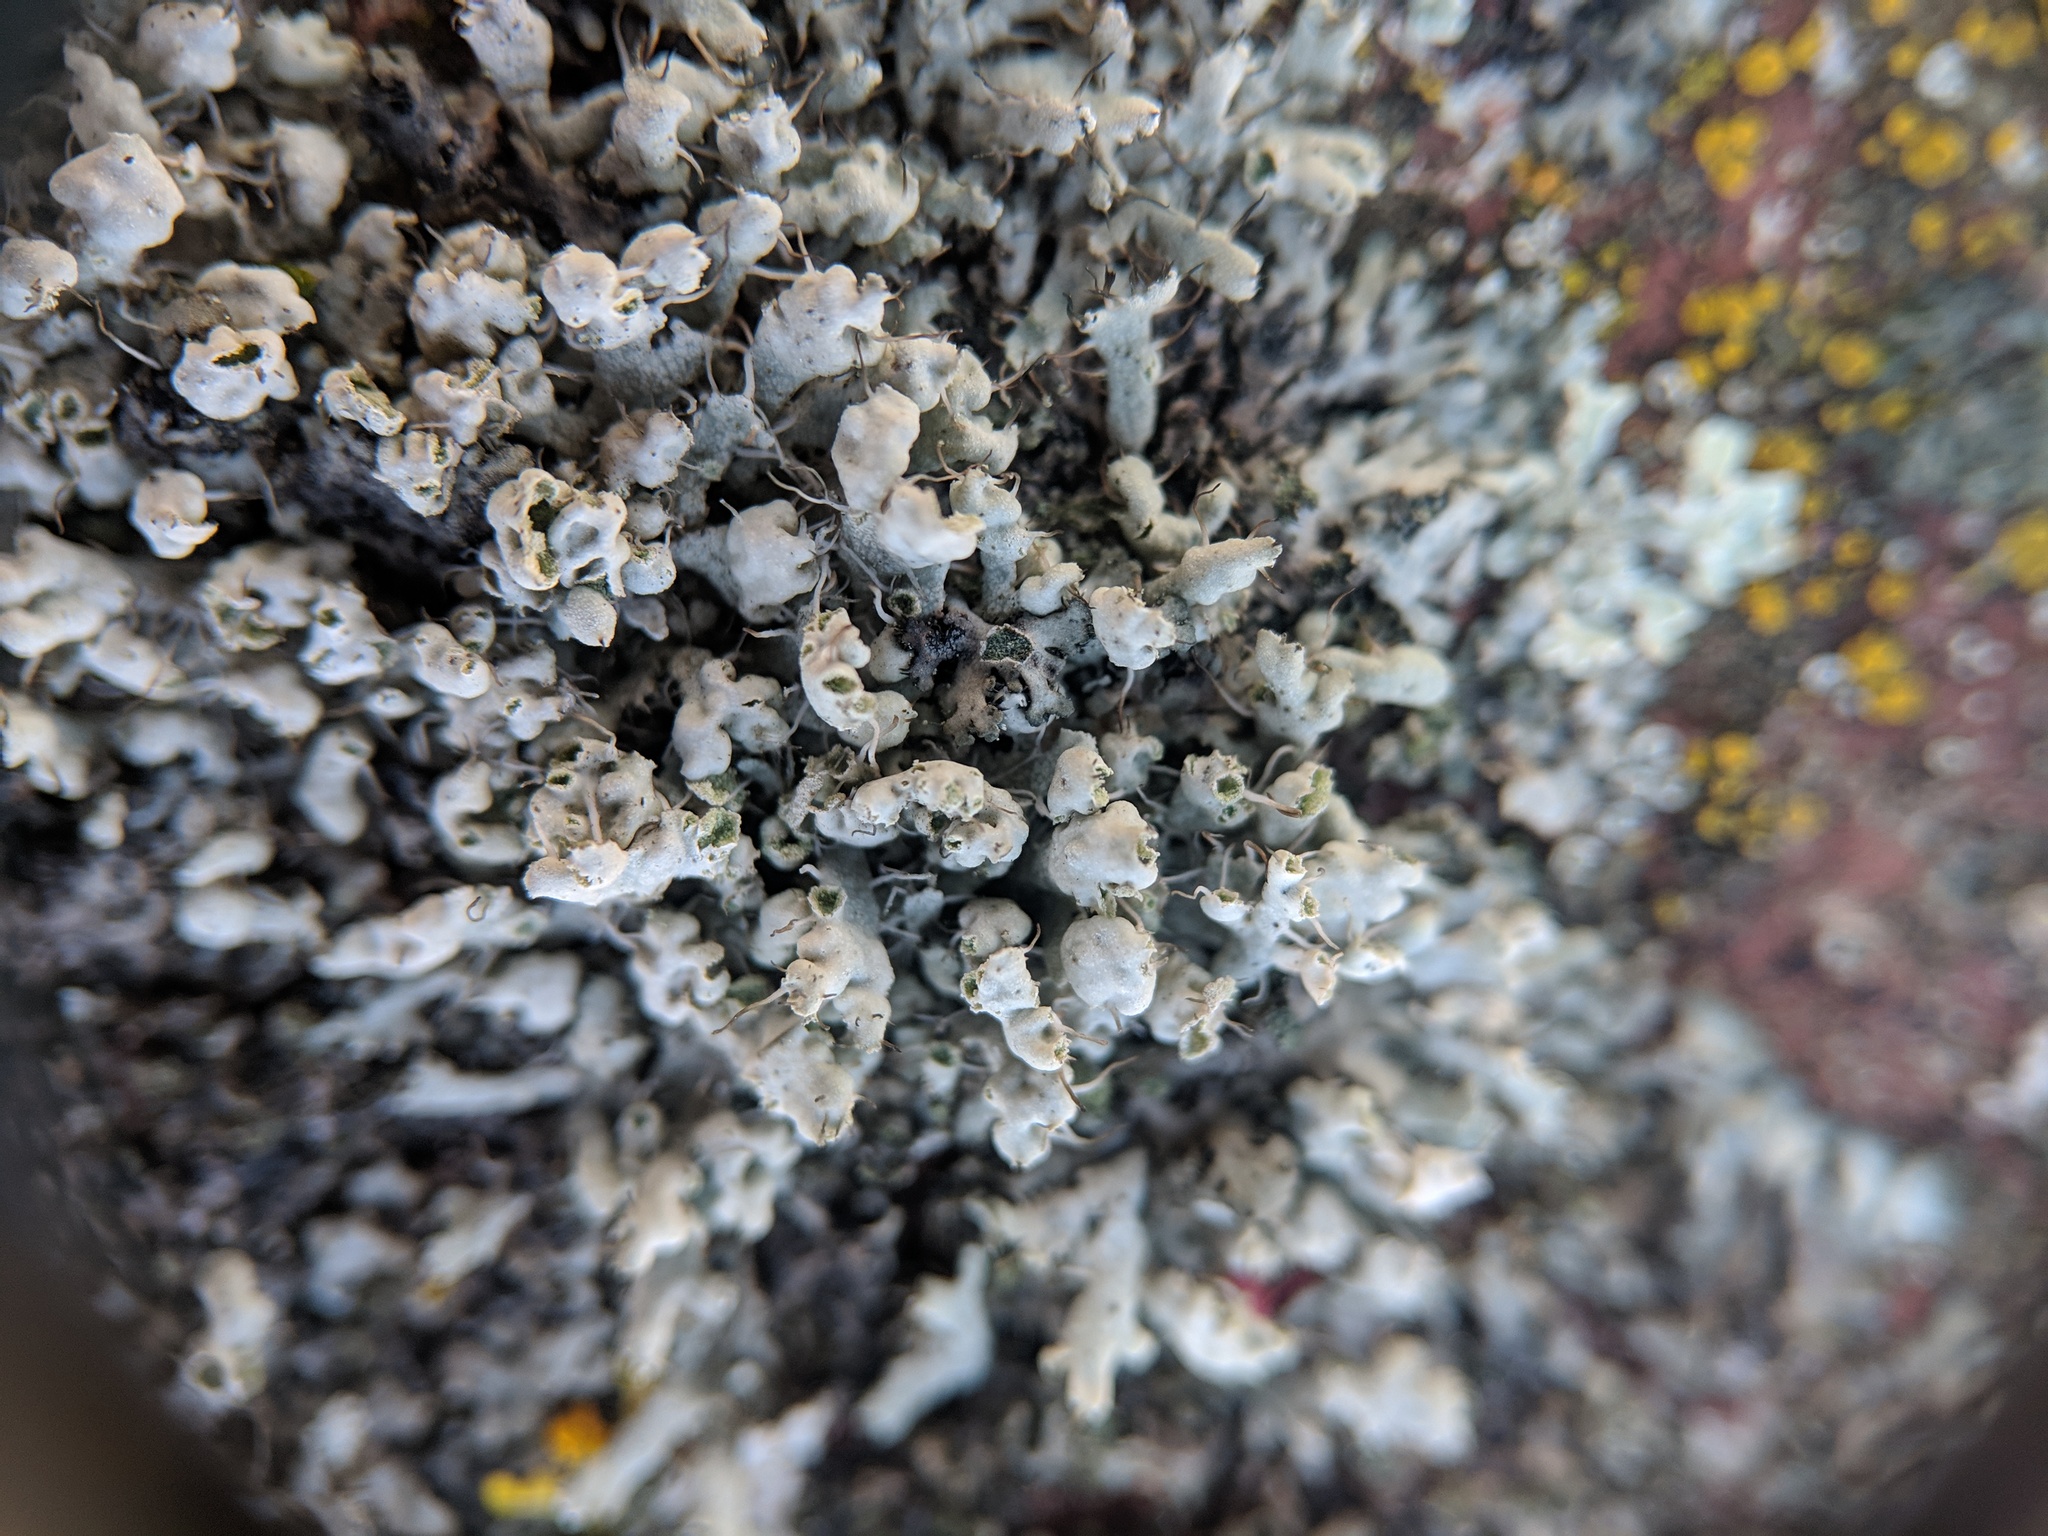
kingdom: Fungi
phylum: Ascomycota
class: Lecanoromycetes
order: Caliciales
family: Physciaceae
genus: Physcia
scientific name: Physcia adscendens
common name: Hooded rosette lichen
